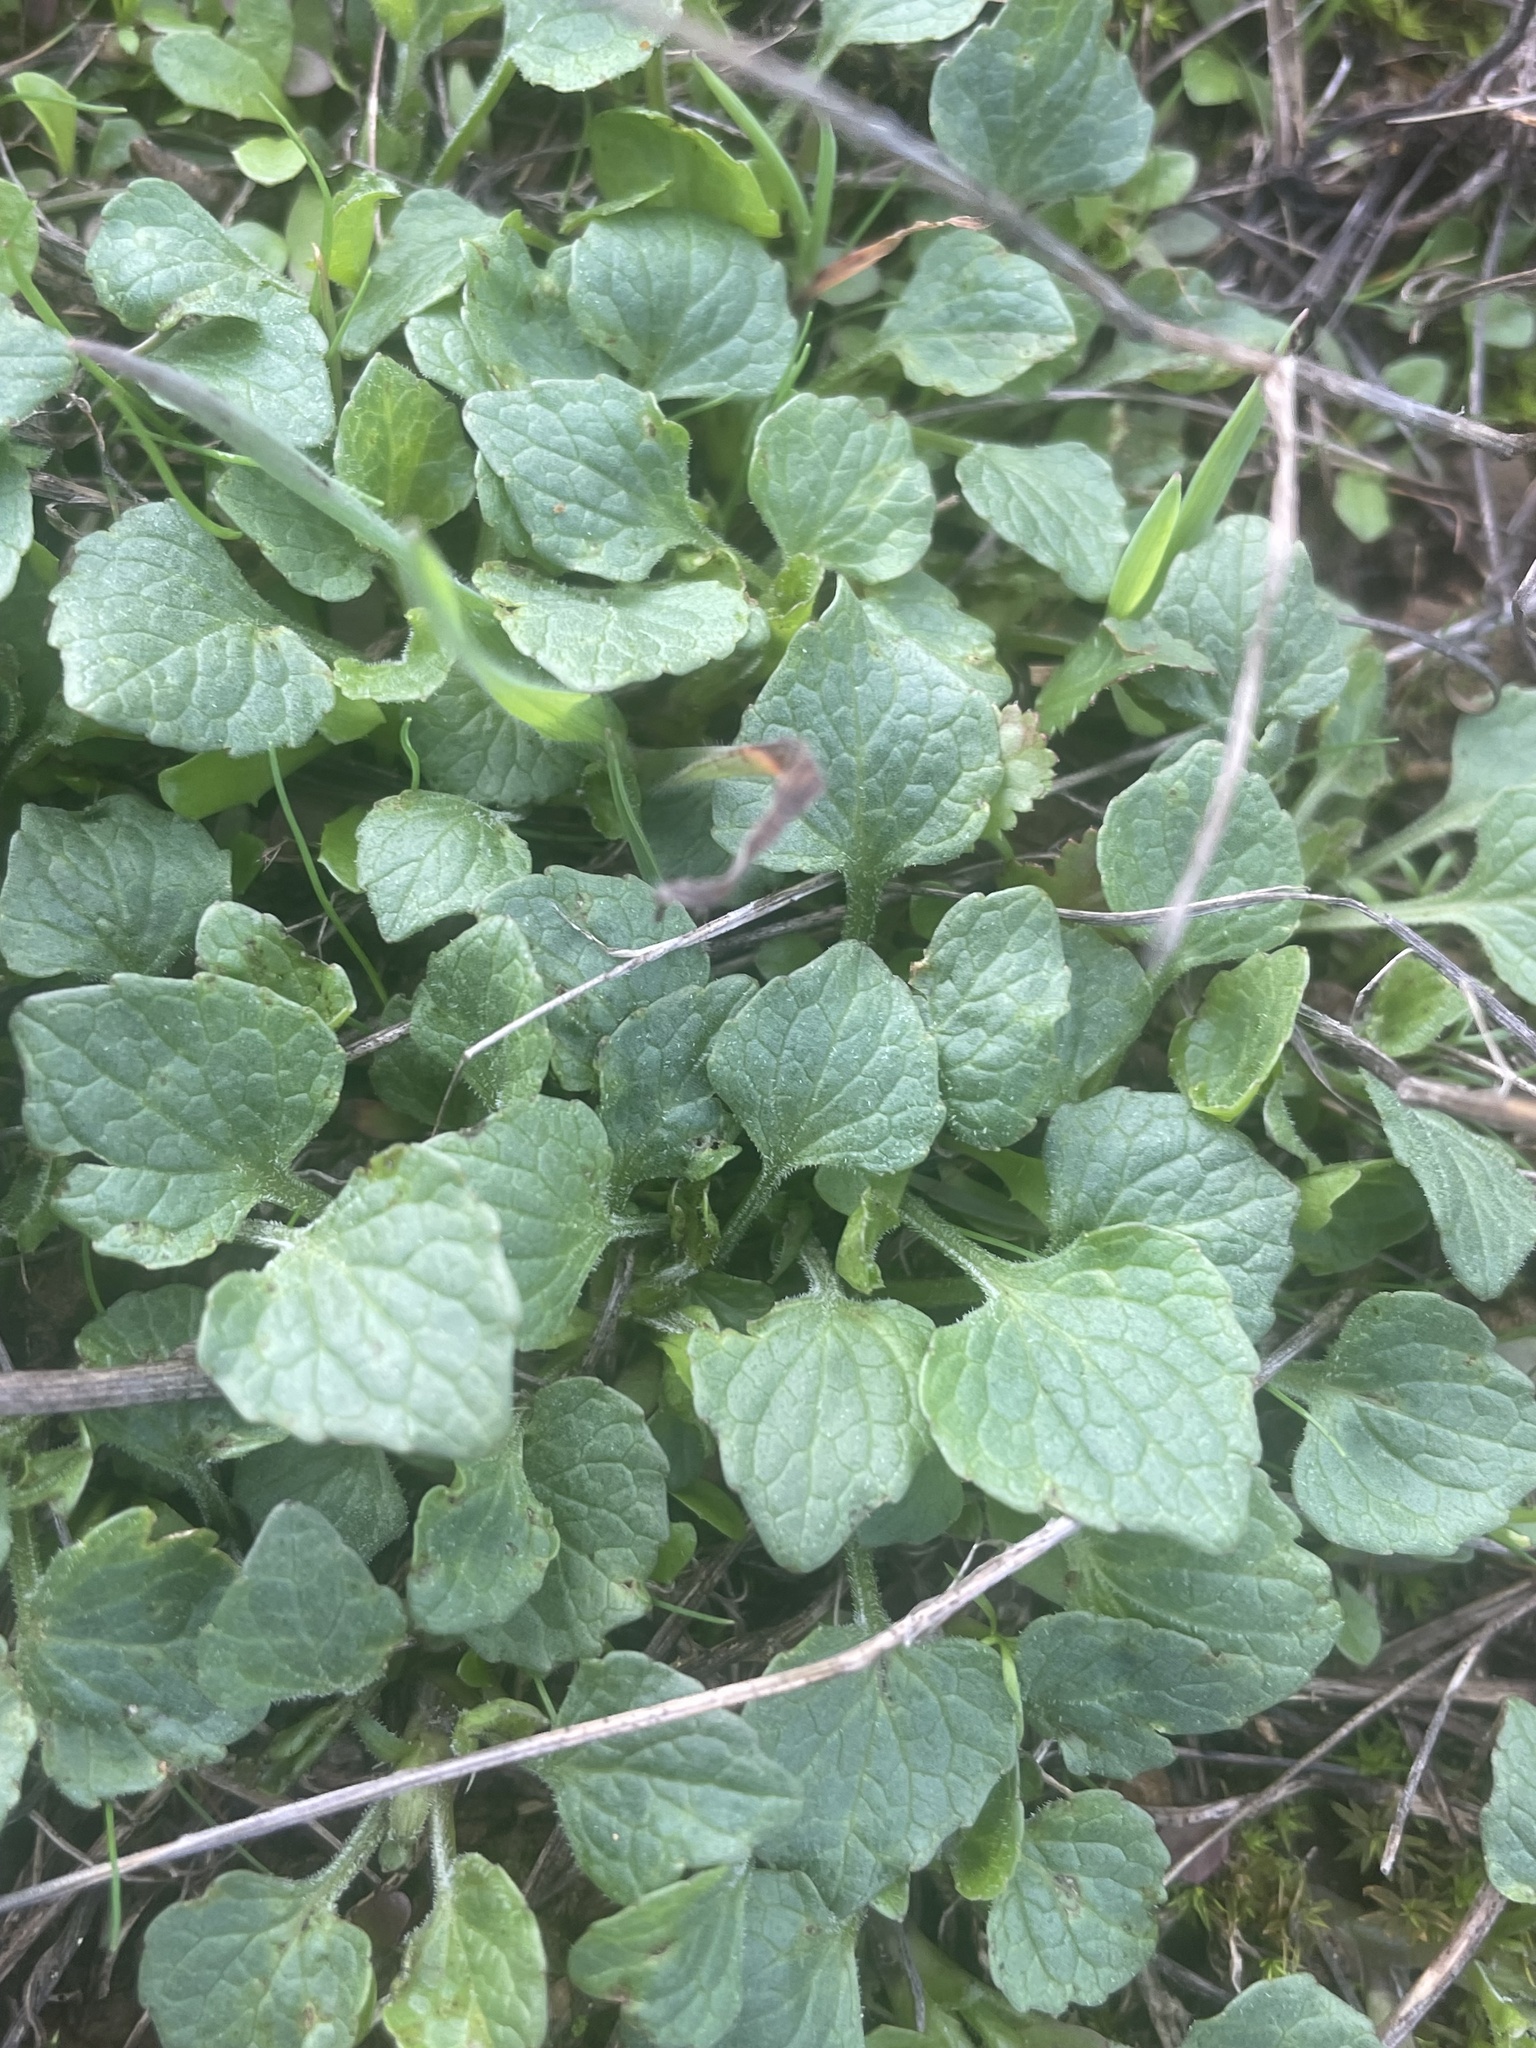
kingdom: Plantae
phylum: Tracheophyta
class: Magnoliopsida
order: Malpighiales
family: Violaceae
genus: Viola
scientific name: Viola pedunculata
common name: California golden violet
